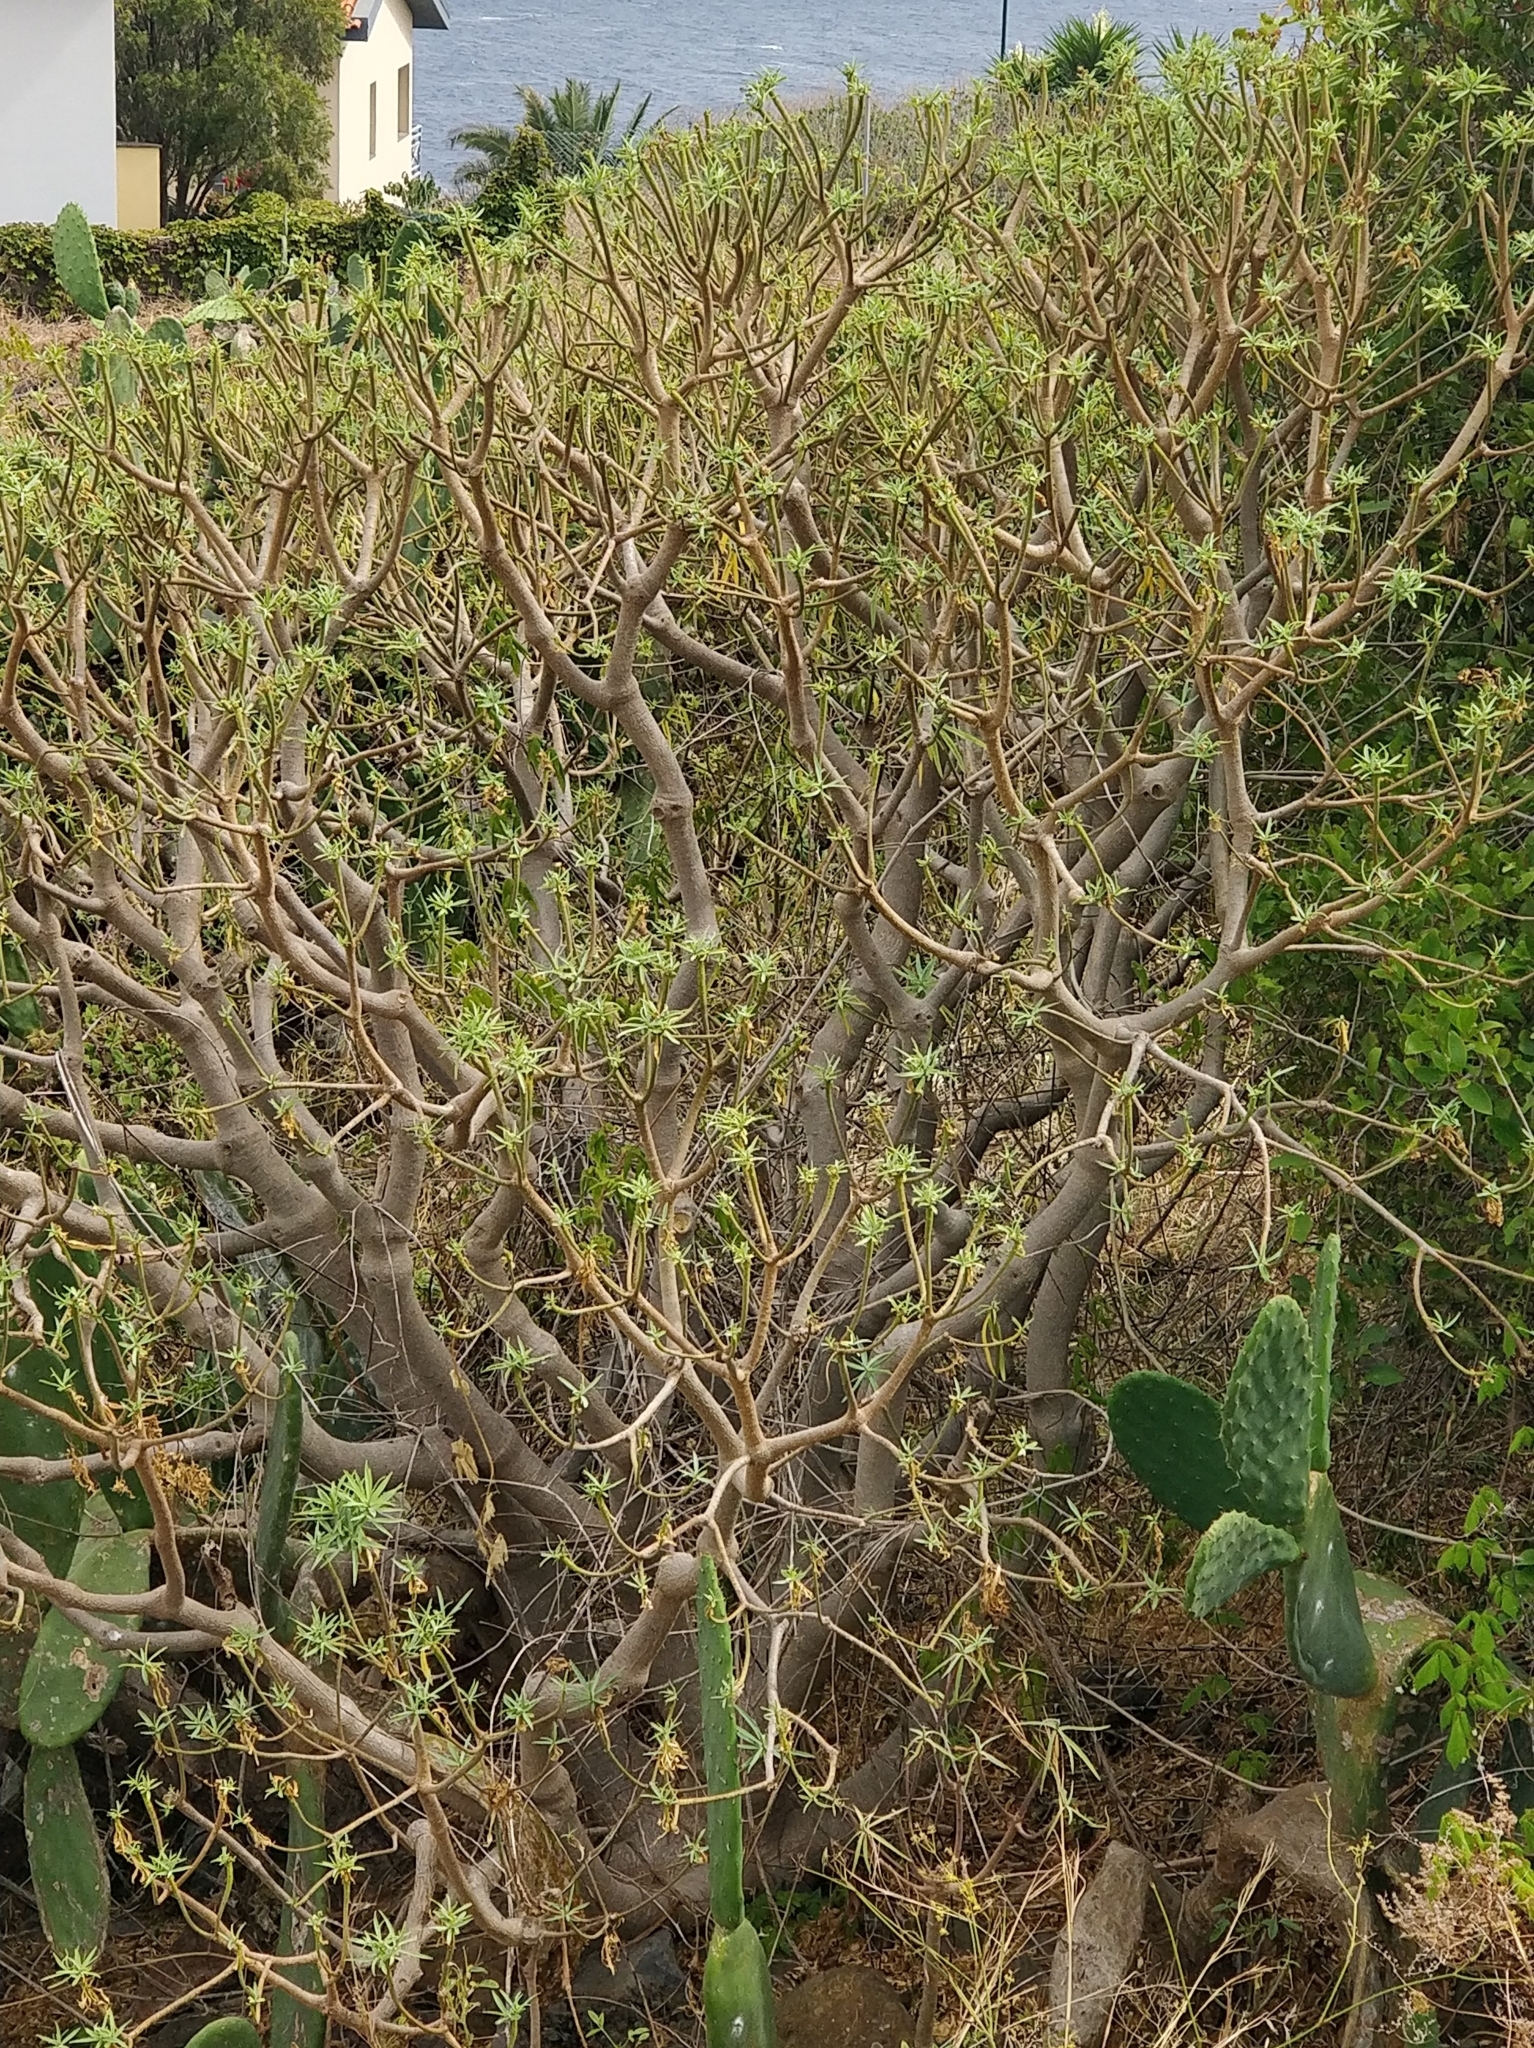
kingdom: Plantae
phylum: Tracheophyta
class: Magnoliopsida
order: Malpighiales
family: Euphorbiaceae
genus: Euphorbia
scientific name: Euphorbia piscatoria
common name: Fish-stunning spurge
